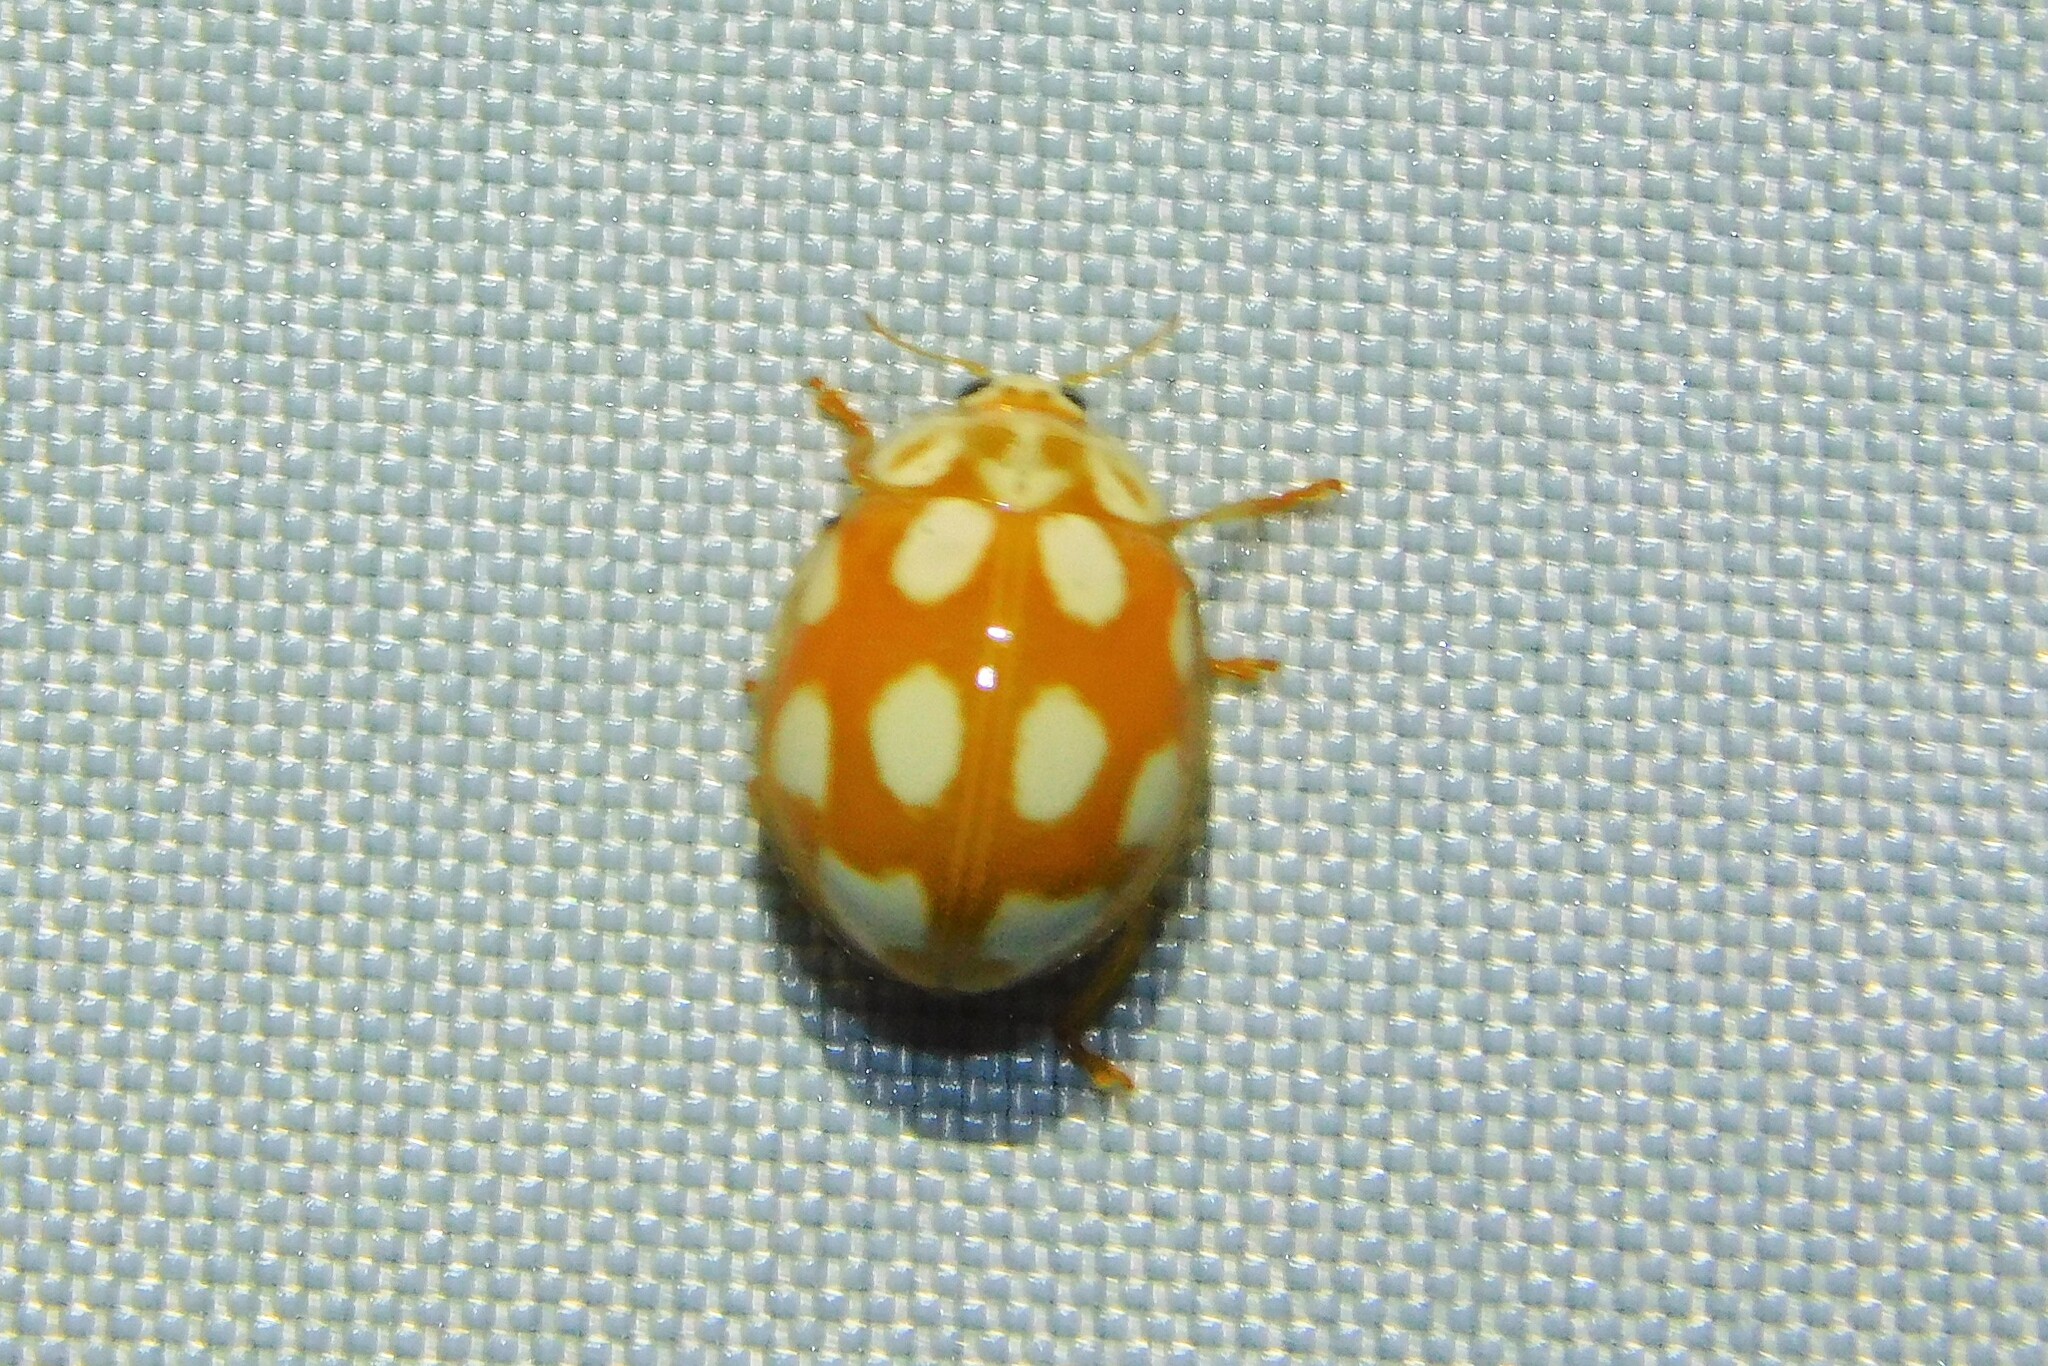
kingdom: Animalia
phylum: Arthropoda
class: Insecta
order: Coleoptera
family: Coccinellidae
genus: Calvia
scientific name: Calvia decemguttata
